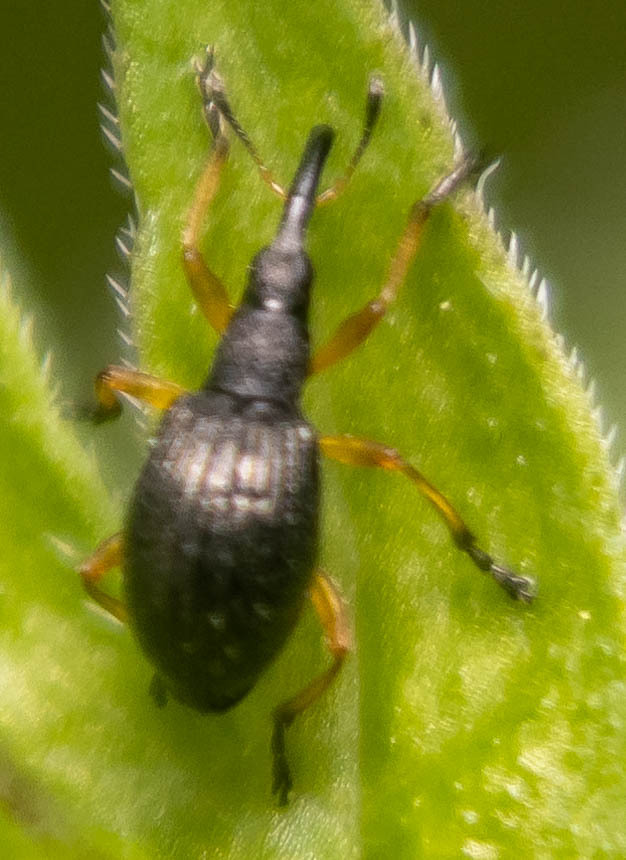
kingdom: Animalia
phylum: Arthropoda
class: Insecta
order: Coleoptera
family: Apionidae
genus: Protapion
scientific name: Protapion fulvipes
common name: White clover seed weevil
